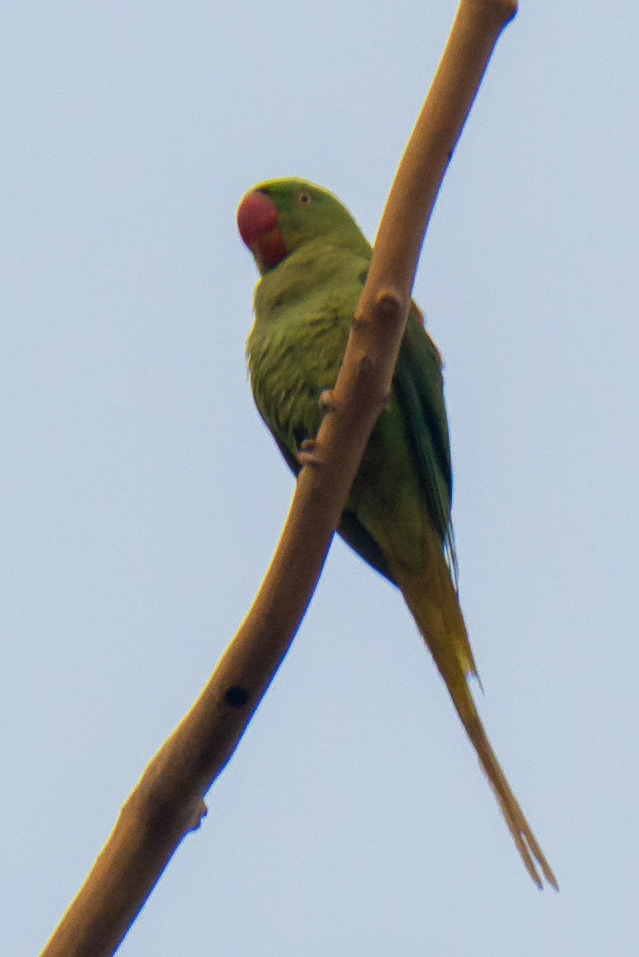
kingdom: Animalia
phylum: Chordata
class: Aves
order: Psittaciformes
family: Psittacidae
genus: Psittacula
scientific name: Psittacula eupatria
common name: Alexandrine parakeet
